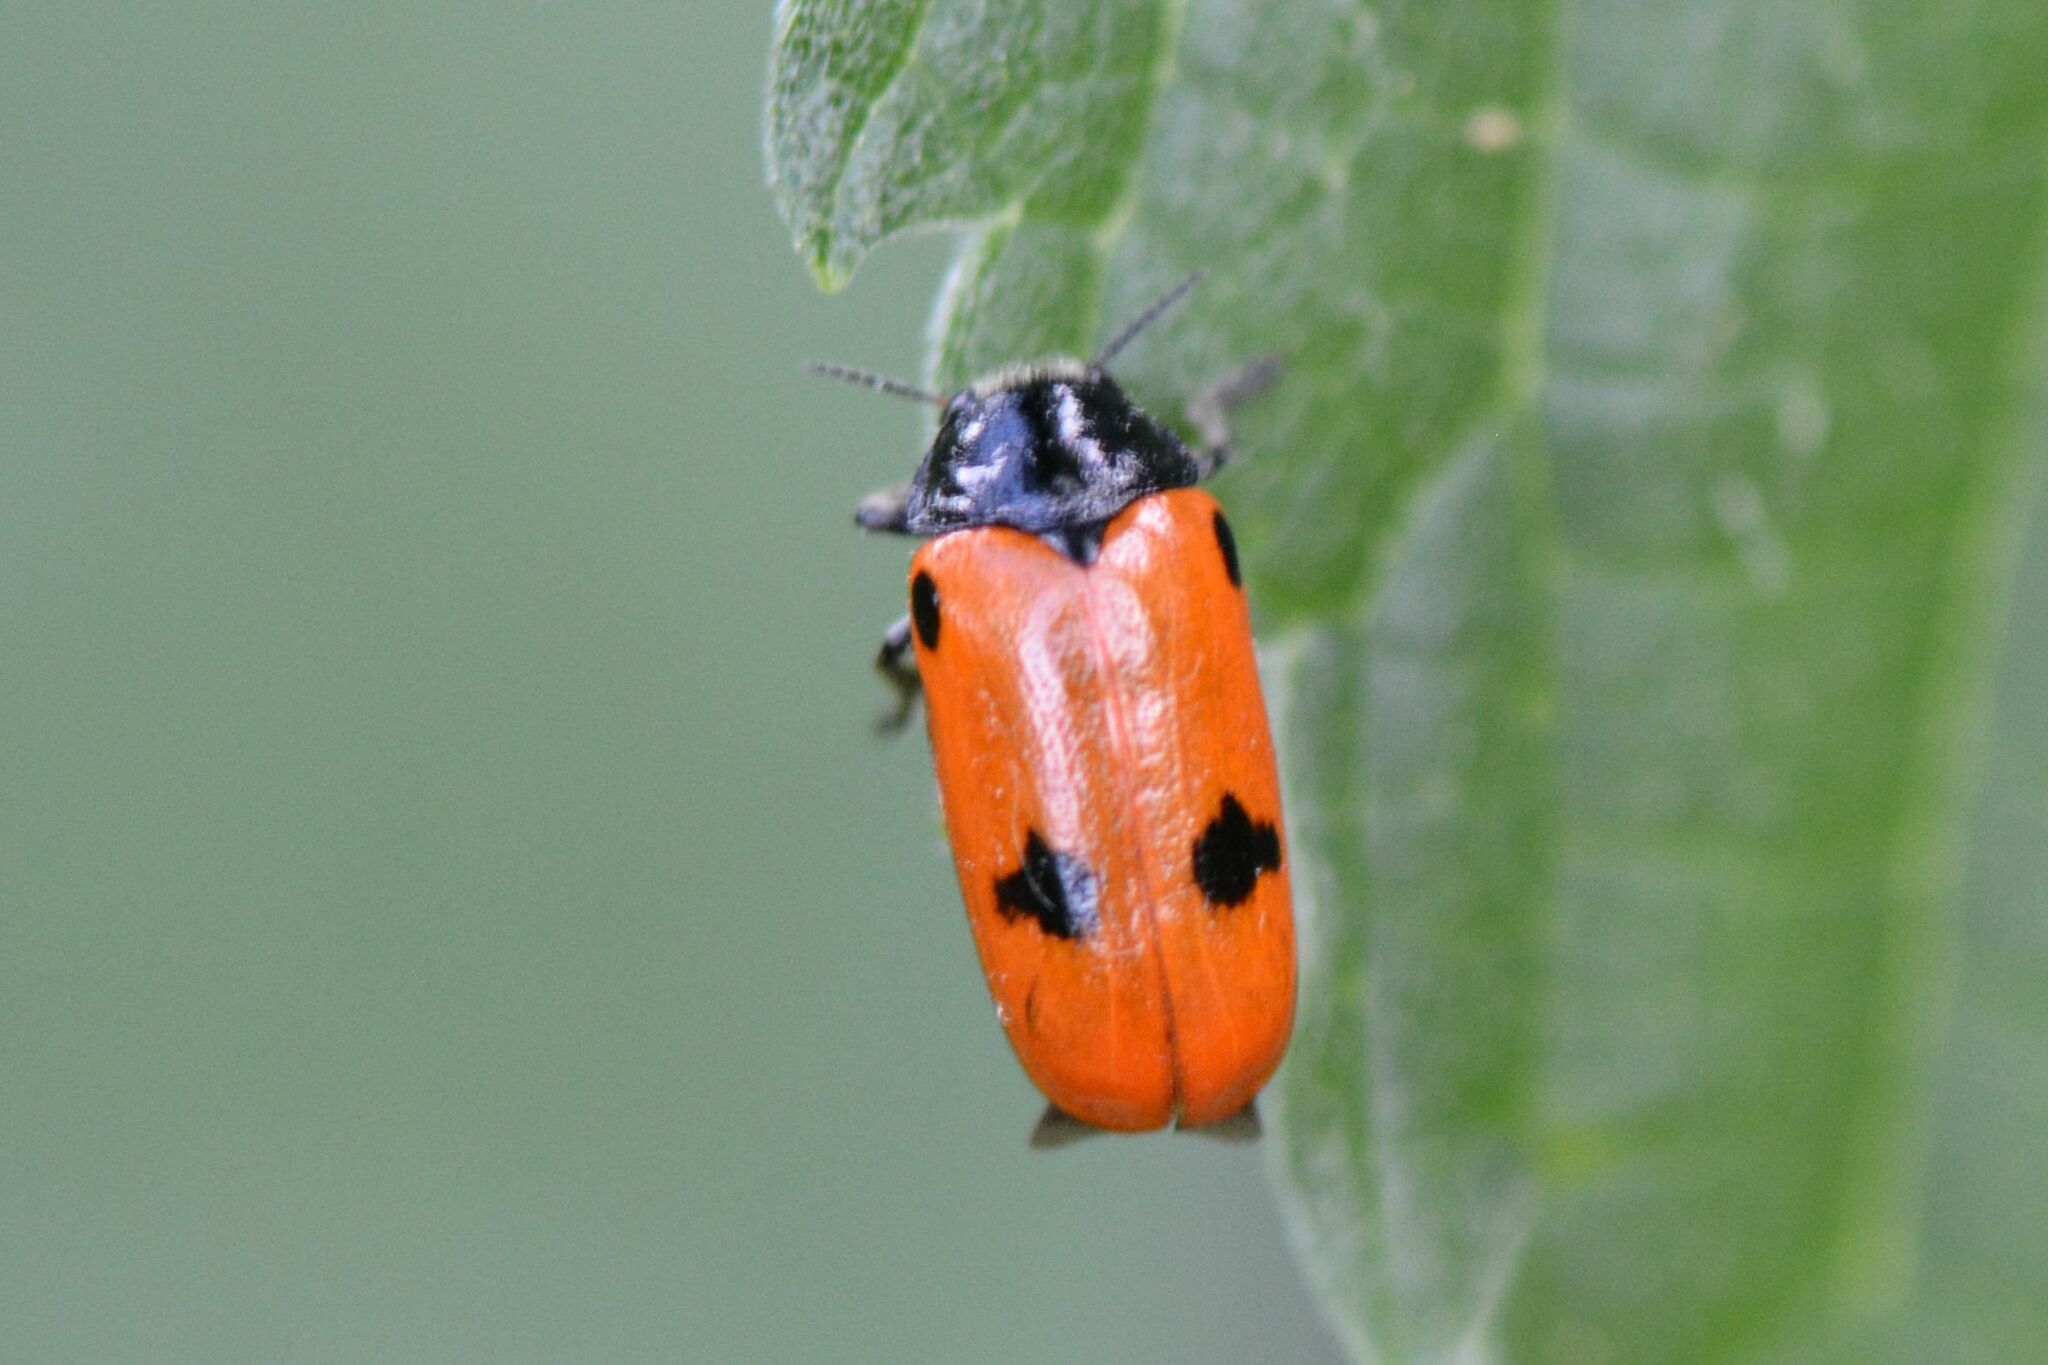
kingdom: Animalia
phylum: Arthropoda
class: Insecta
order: Coleoptera
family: Chrysomelidae
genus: Clytra
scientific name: Clytra quadripunctata
